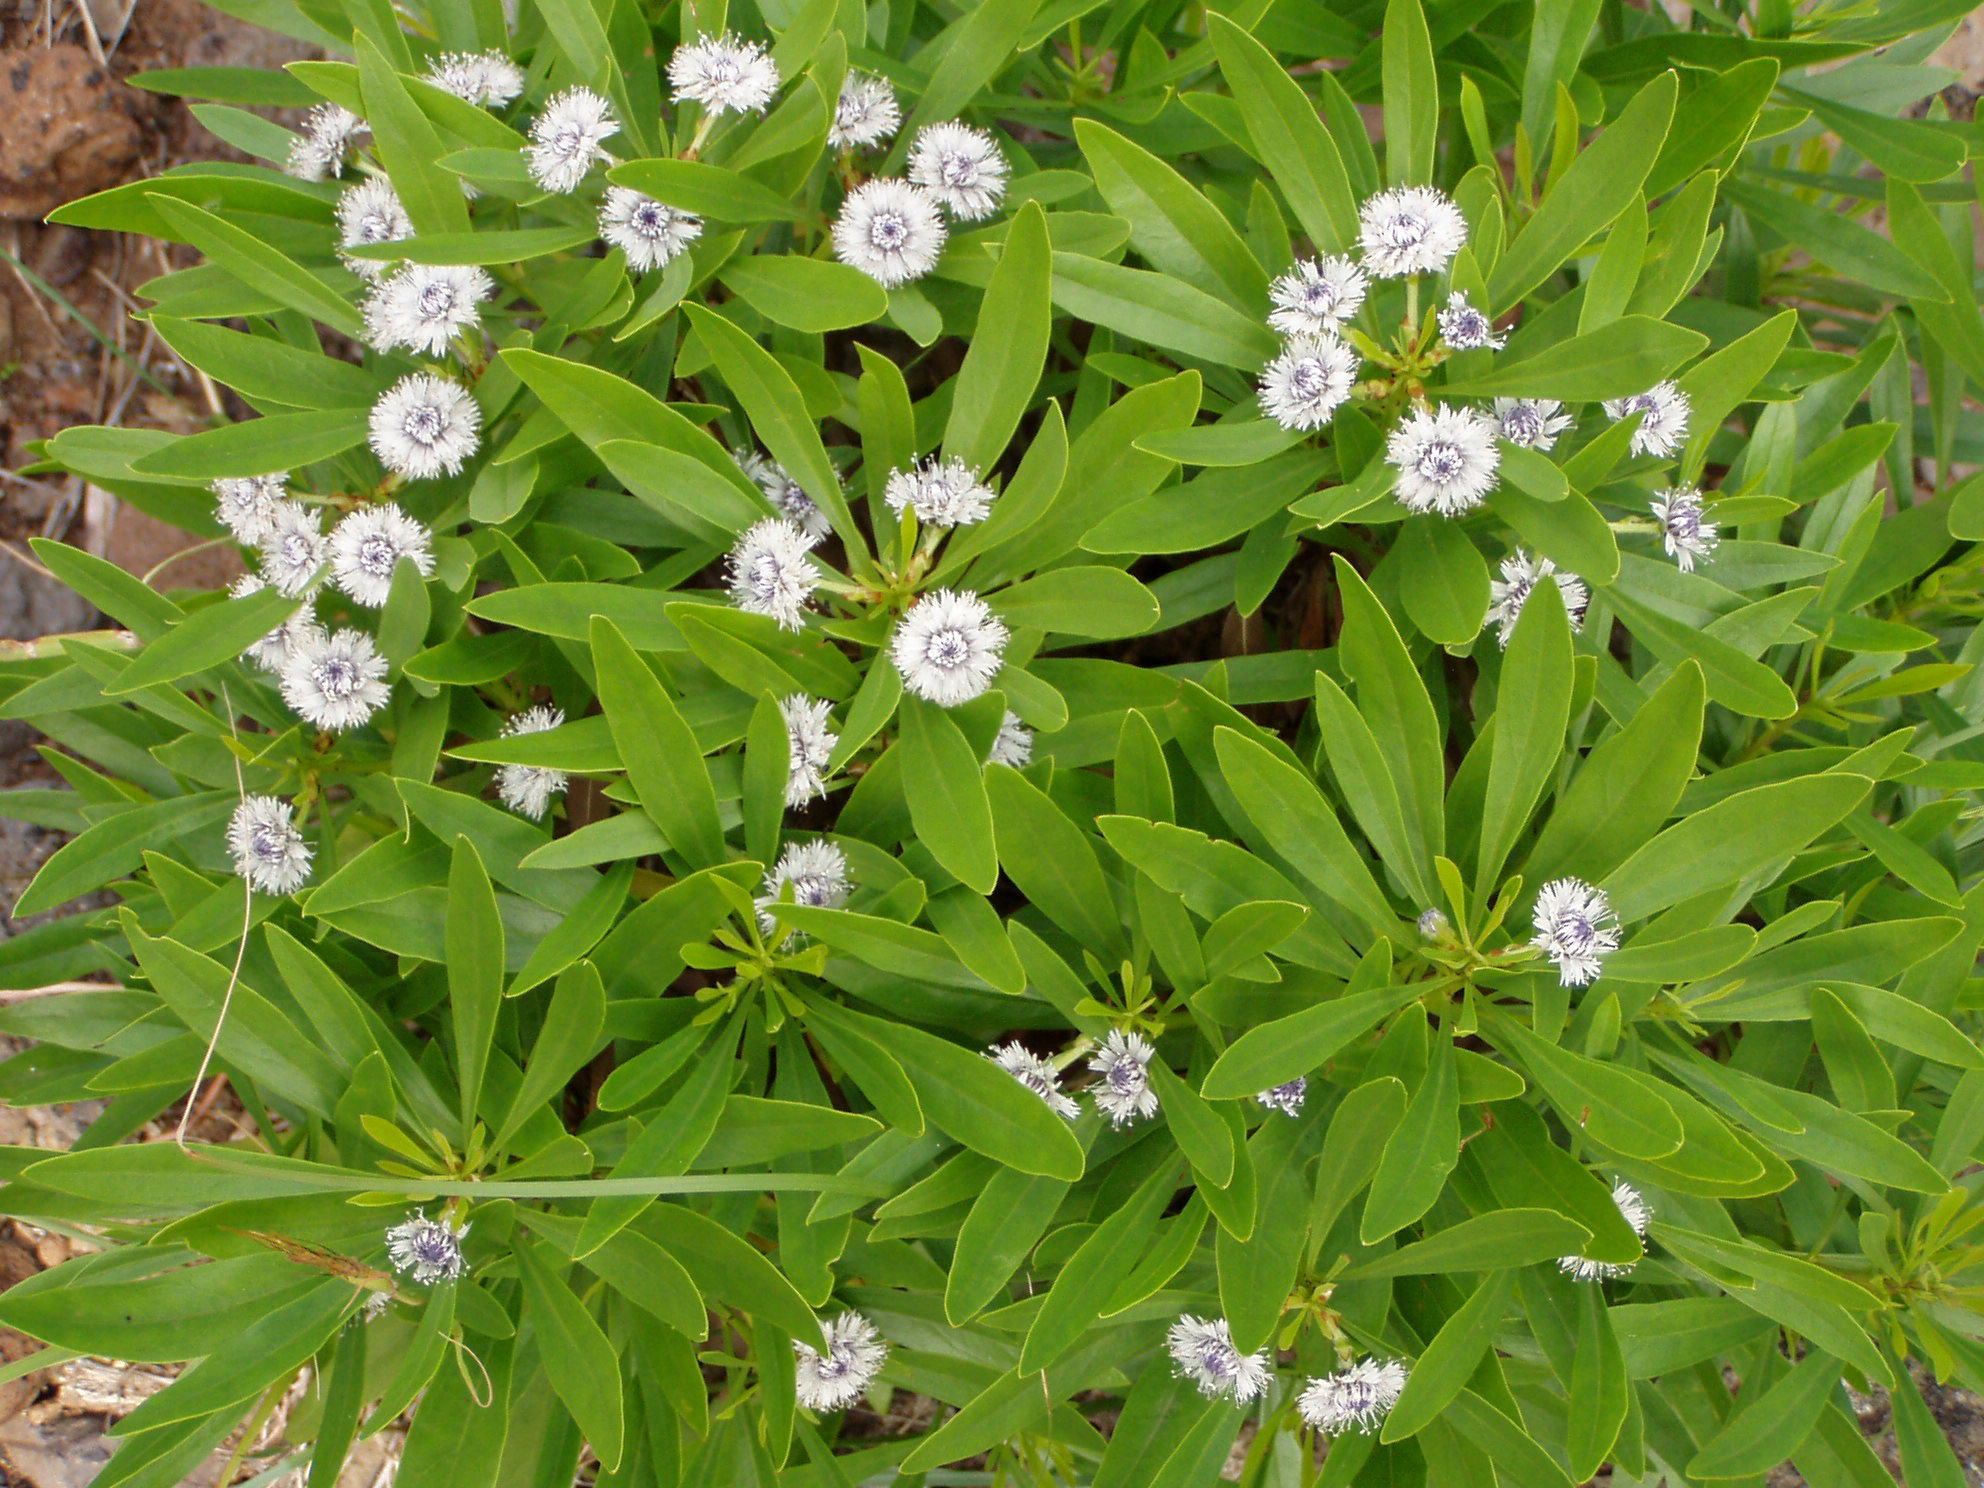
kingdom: Plantae
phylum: Tracheophyta
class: Magnoliopsida
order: Lamiales
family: Plantaginaceae
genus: Globularia
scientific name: Globularia salicina
